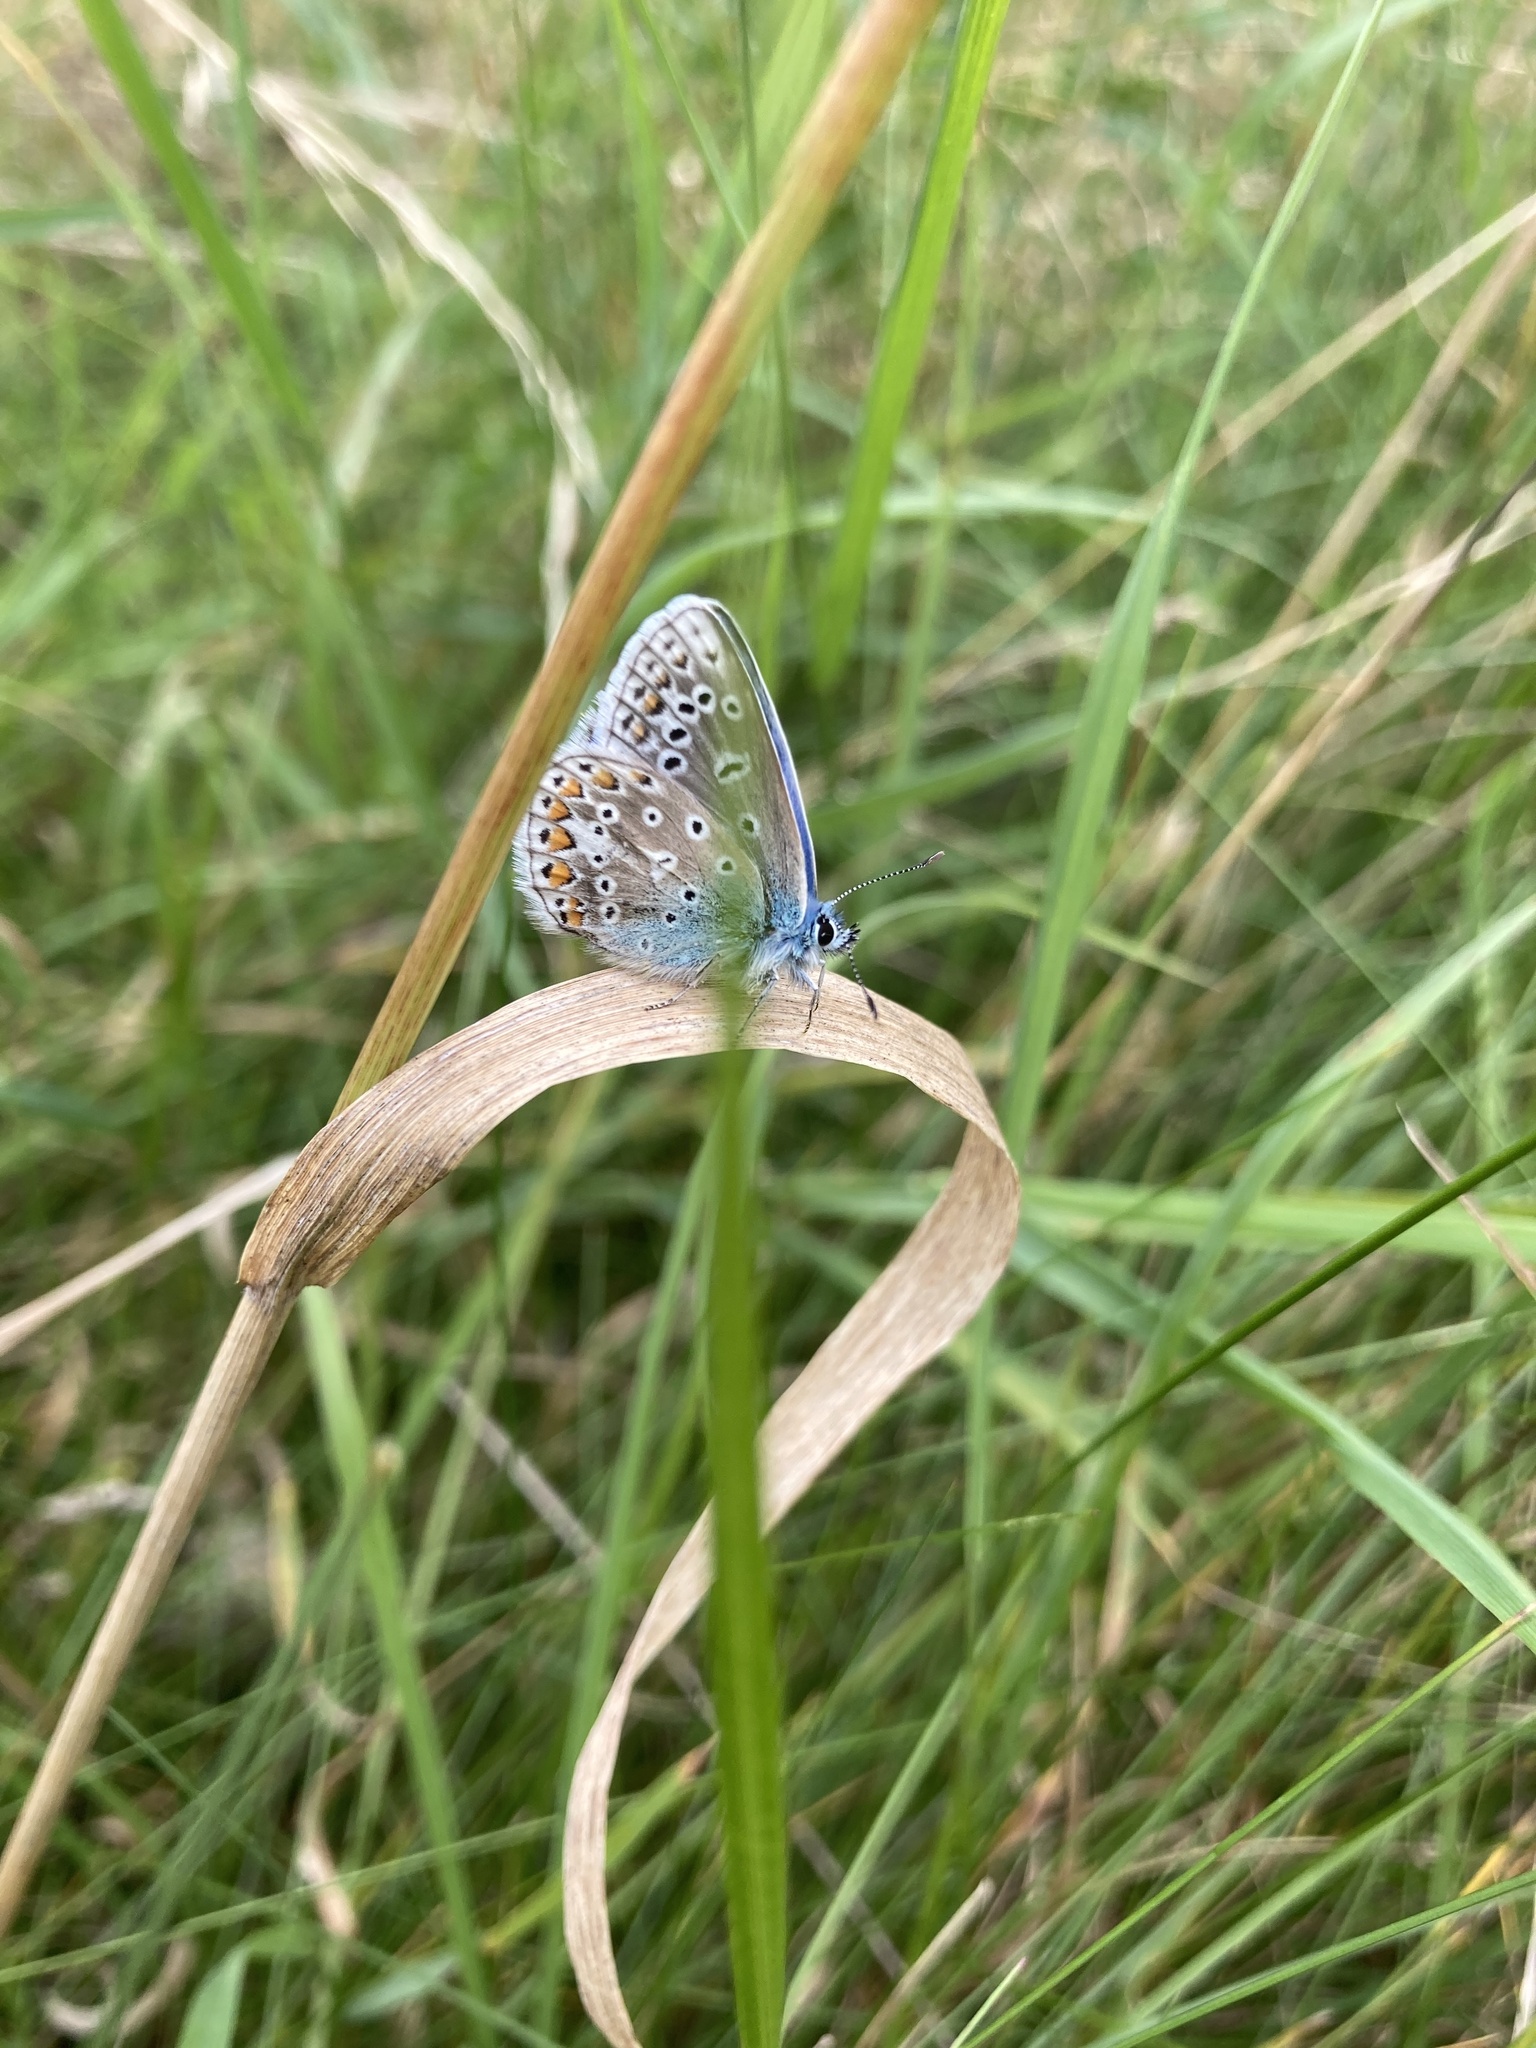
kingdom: Animalia
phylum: Arthropoda
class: Insecta
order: Lepidoptera
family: Lycaenidae
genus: Polyommatus
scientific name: Polyommatus icarus
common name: Common blue
